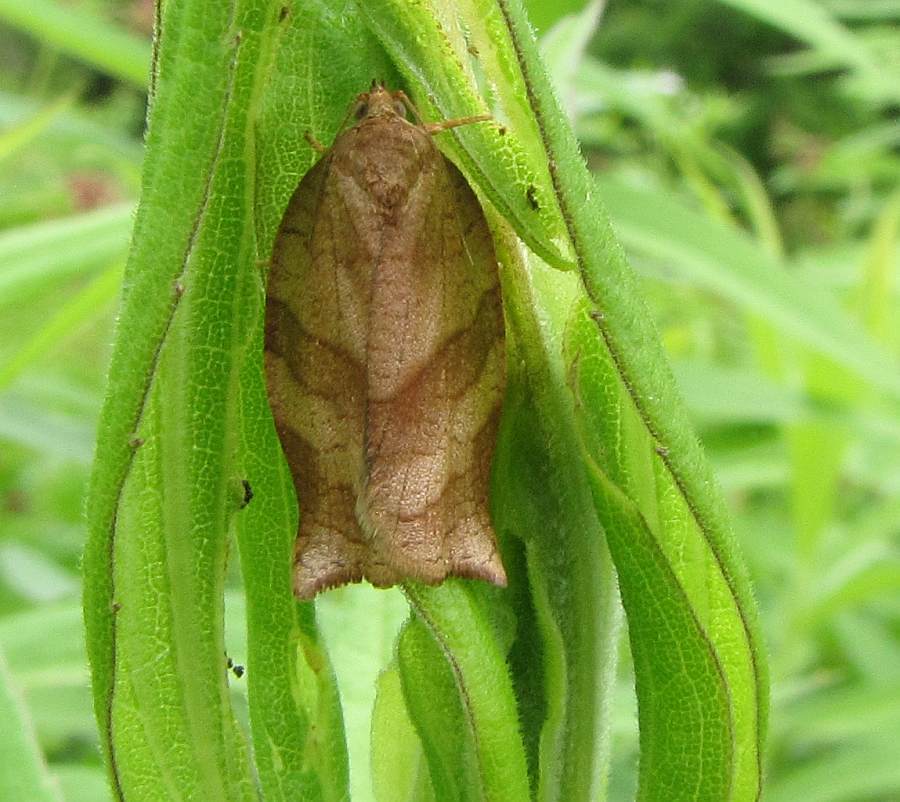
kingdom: Animalia
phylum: Arthropoda
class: Insecta
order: Lepidoptera
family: Tortricidae
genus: Choristoneura
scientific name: Choristoneura rosaceana
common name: Oblique-banded leafroller moth
